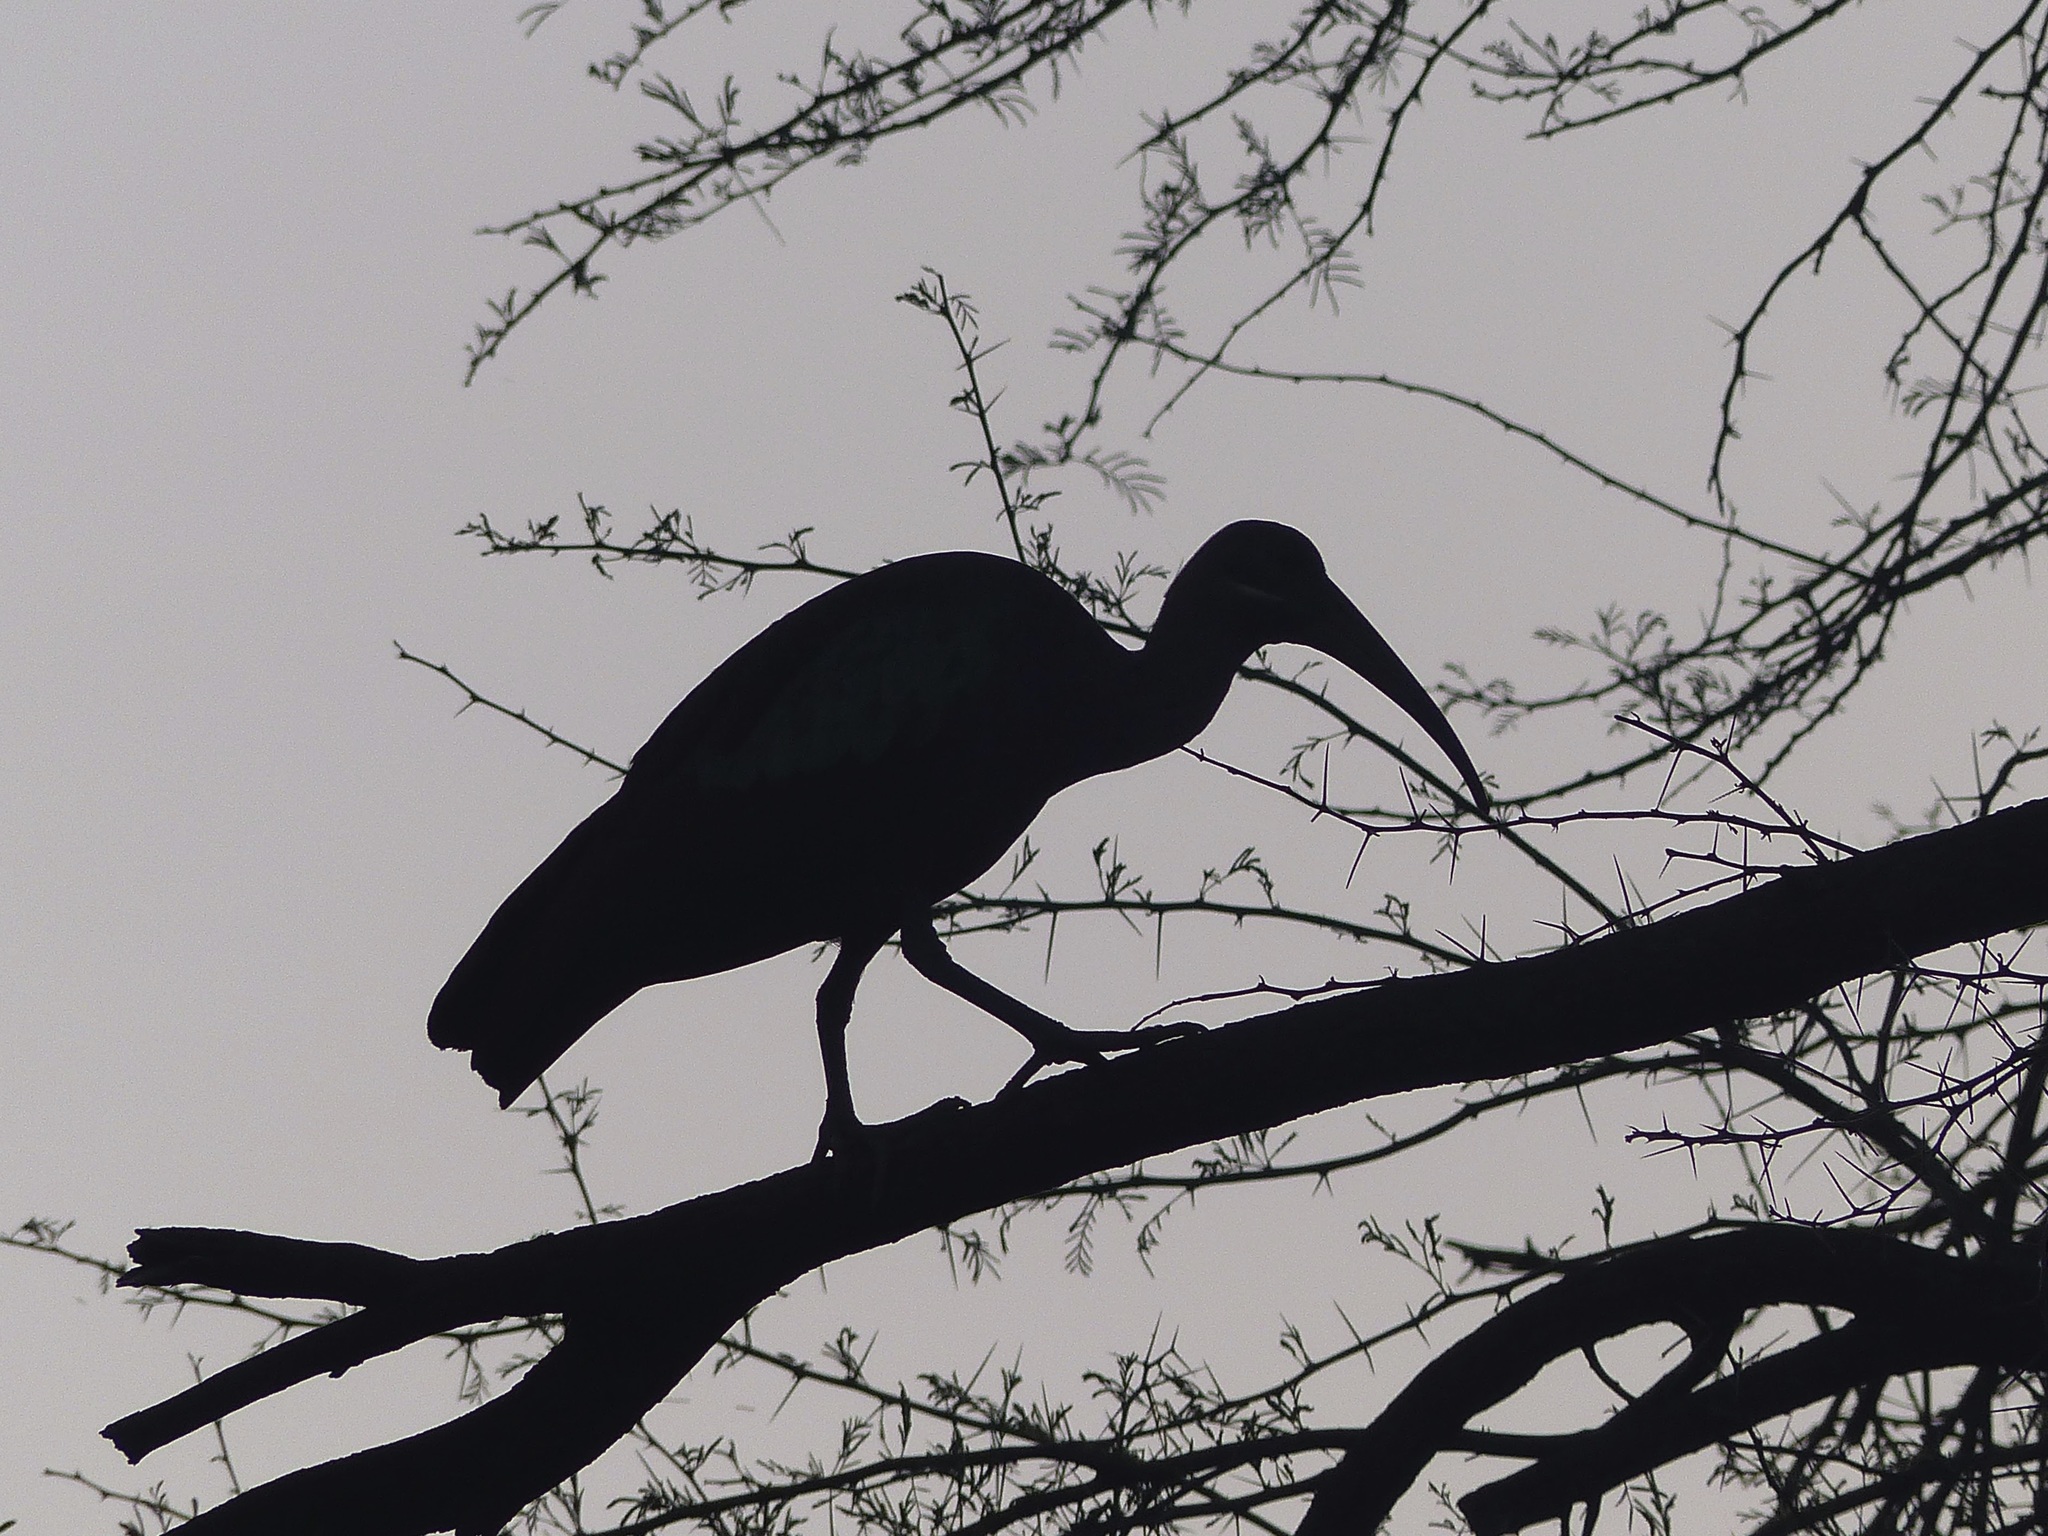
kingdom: Animalia
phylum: Chordata
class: Aves
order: Pelecaniformes
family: Threskiornithidae
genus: Bostrychia
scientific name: Bostrychia hagedash
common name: Hadada ibis
